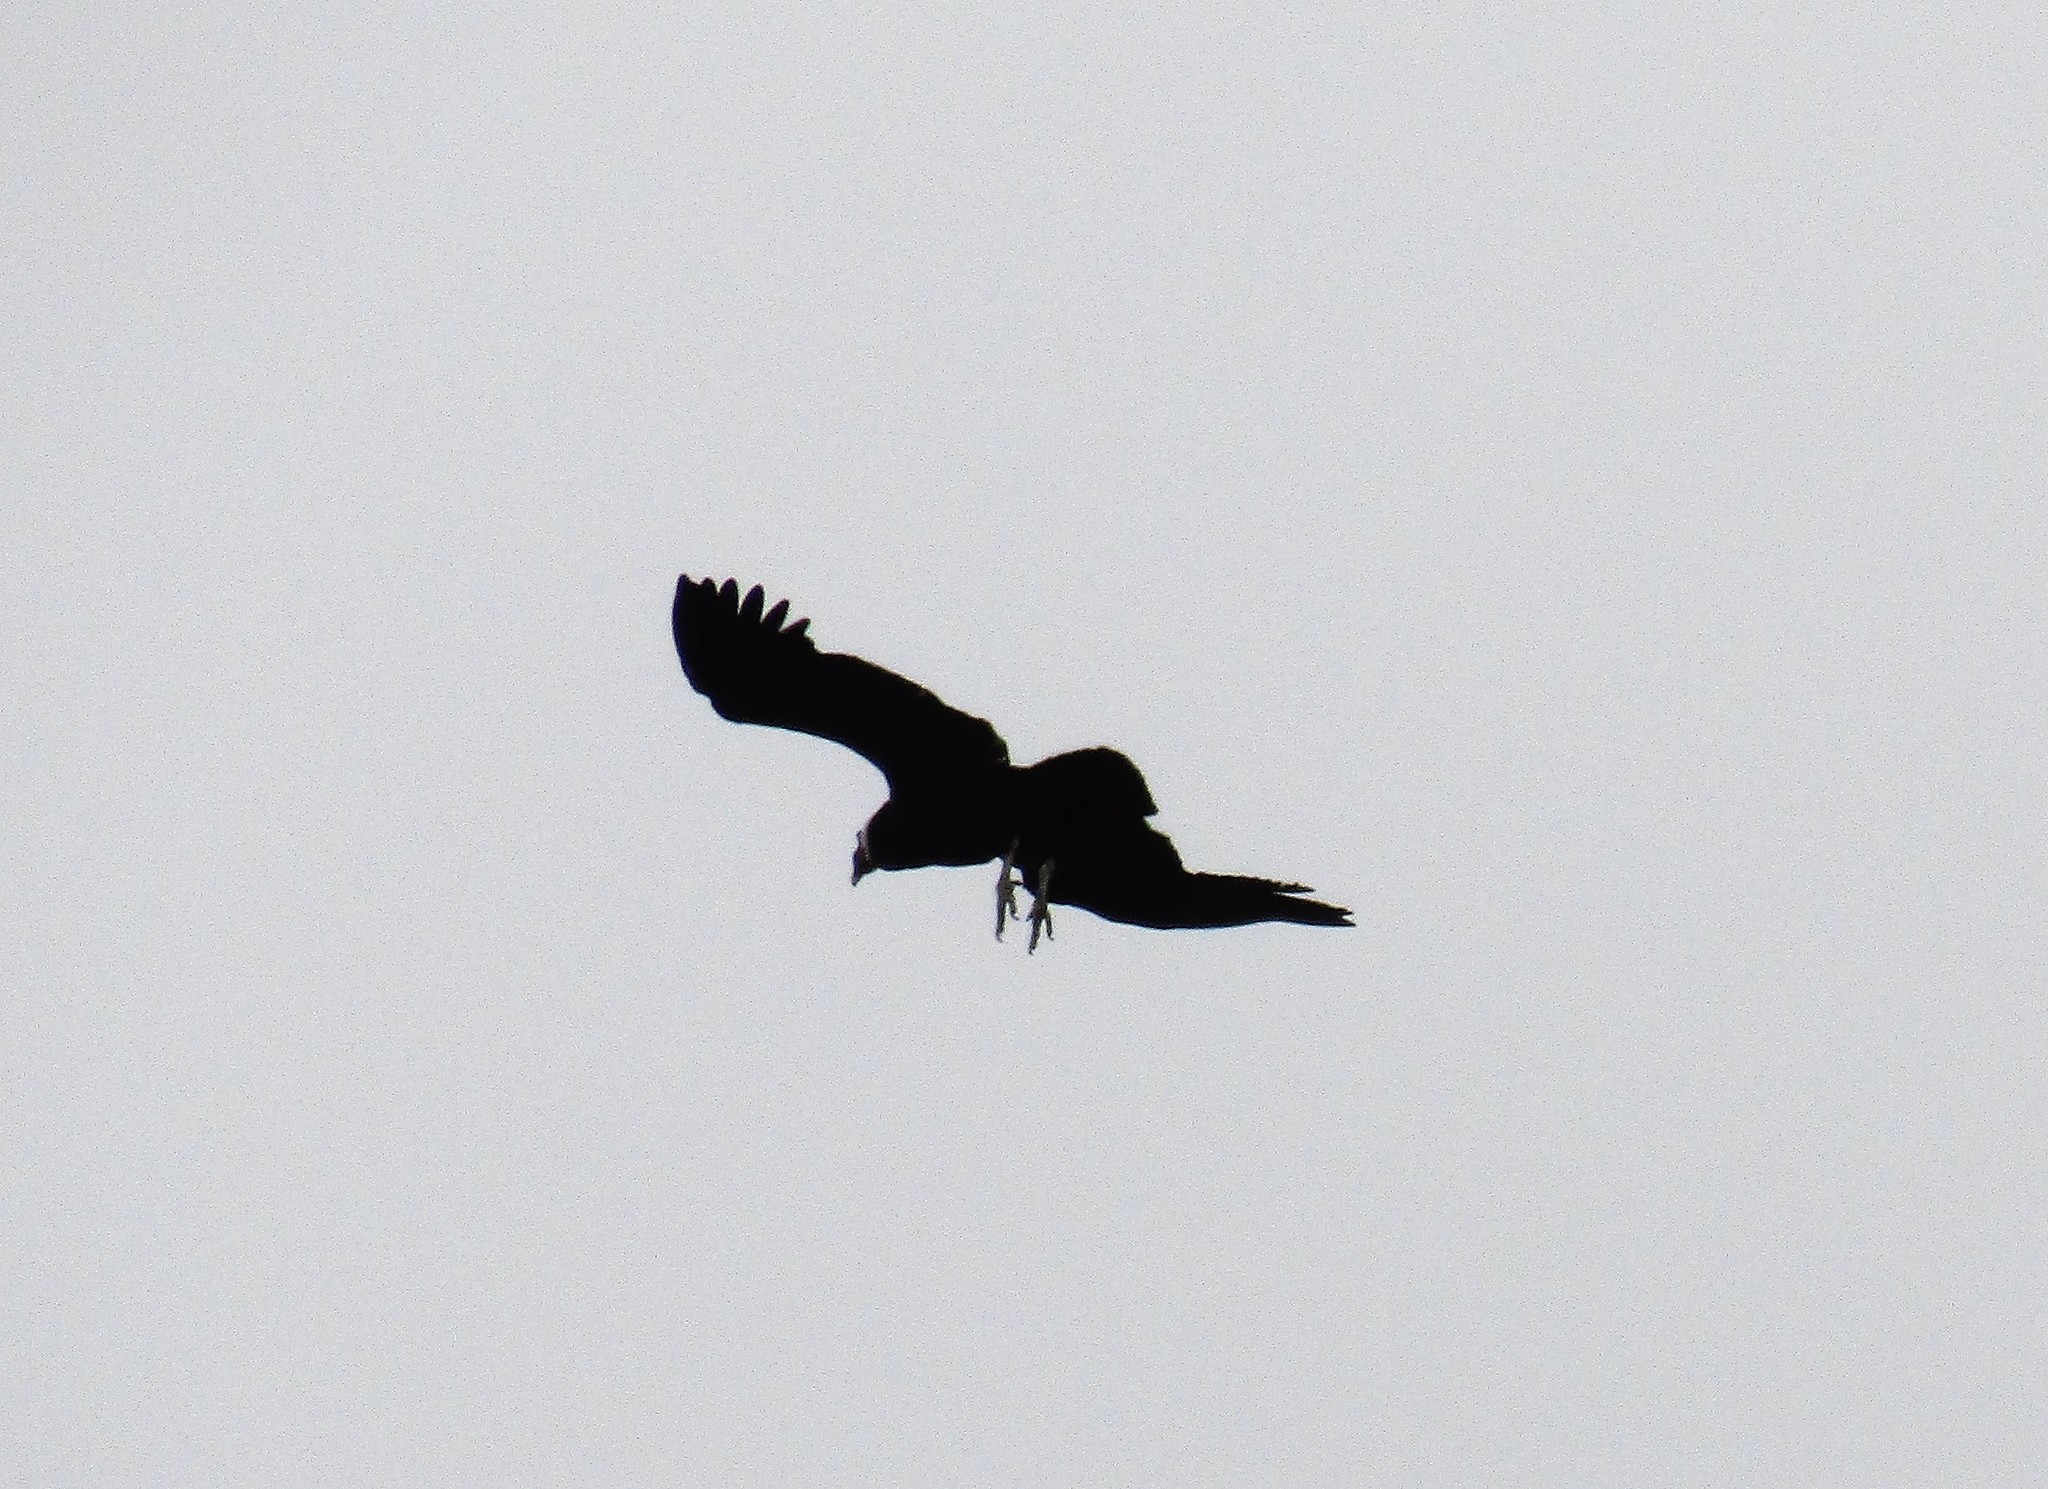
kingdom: Animalia
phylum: Chordata
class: Aves
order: Accipitriformes
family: Cathartidae
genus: Vultur
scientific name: Vultur gryphus
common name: Andean condor
